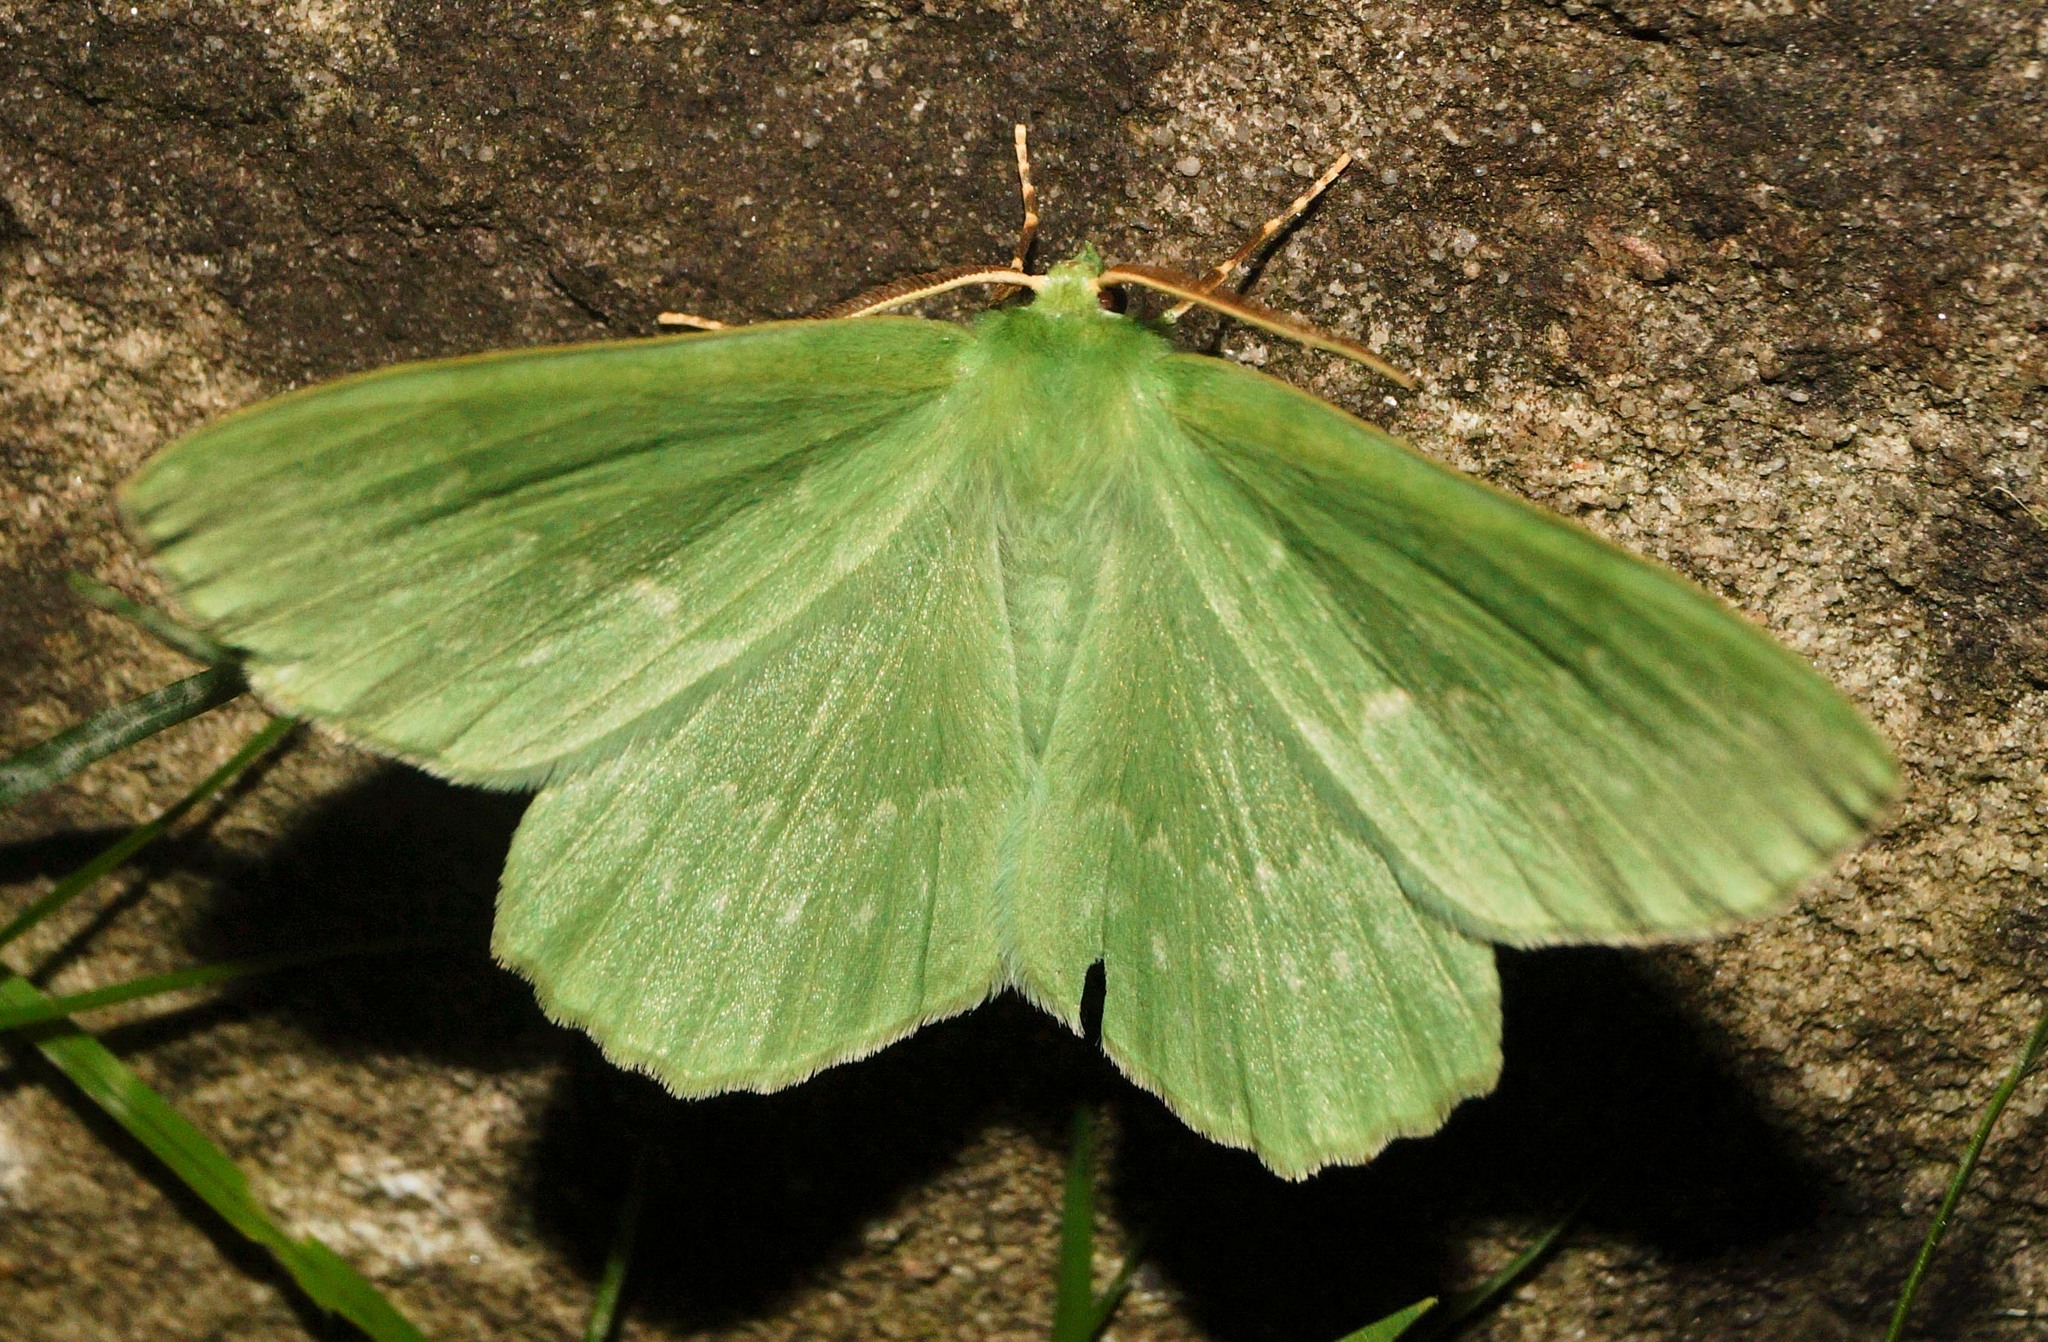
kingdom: Animalia
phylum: Arthropoda
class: Insecta
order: Lepidoptera
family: Geometridae
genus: Geometra
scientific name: Geometra papilionaria
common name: Large emerald
